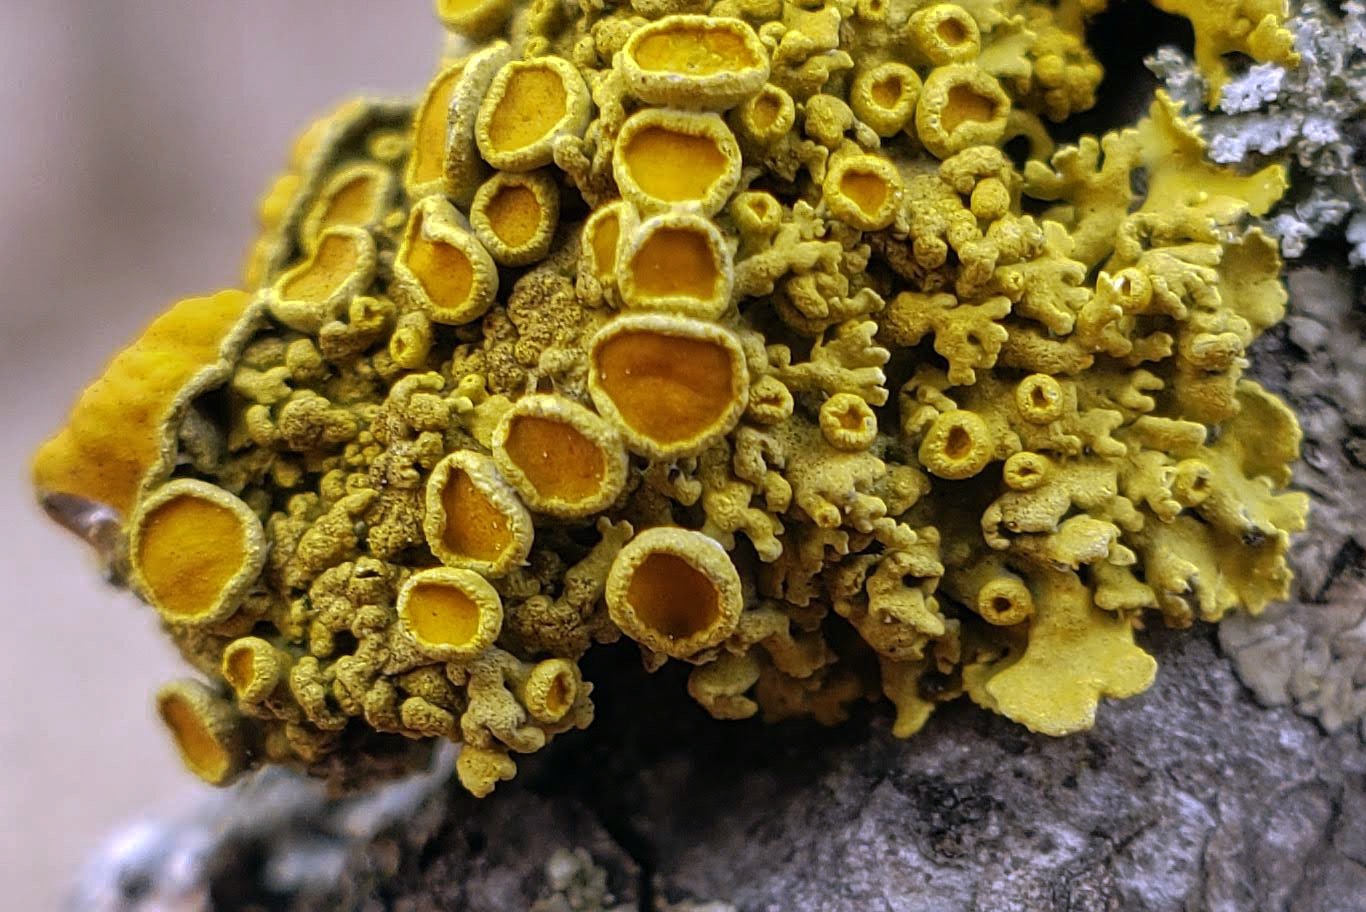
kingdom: Fungi
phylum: Ascomycota
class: Lecanoromycetes
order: Teloschistales
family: Teloschistaceae
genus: Polycauliona
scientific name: Polycauliona polycarpa
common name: Pin-cushion sunburst lichen
